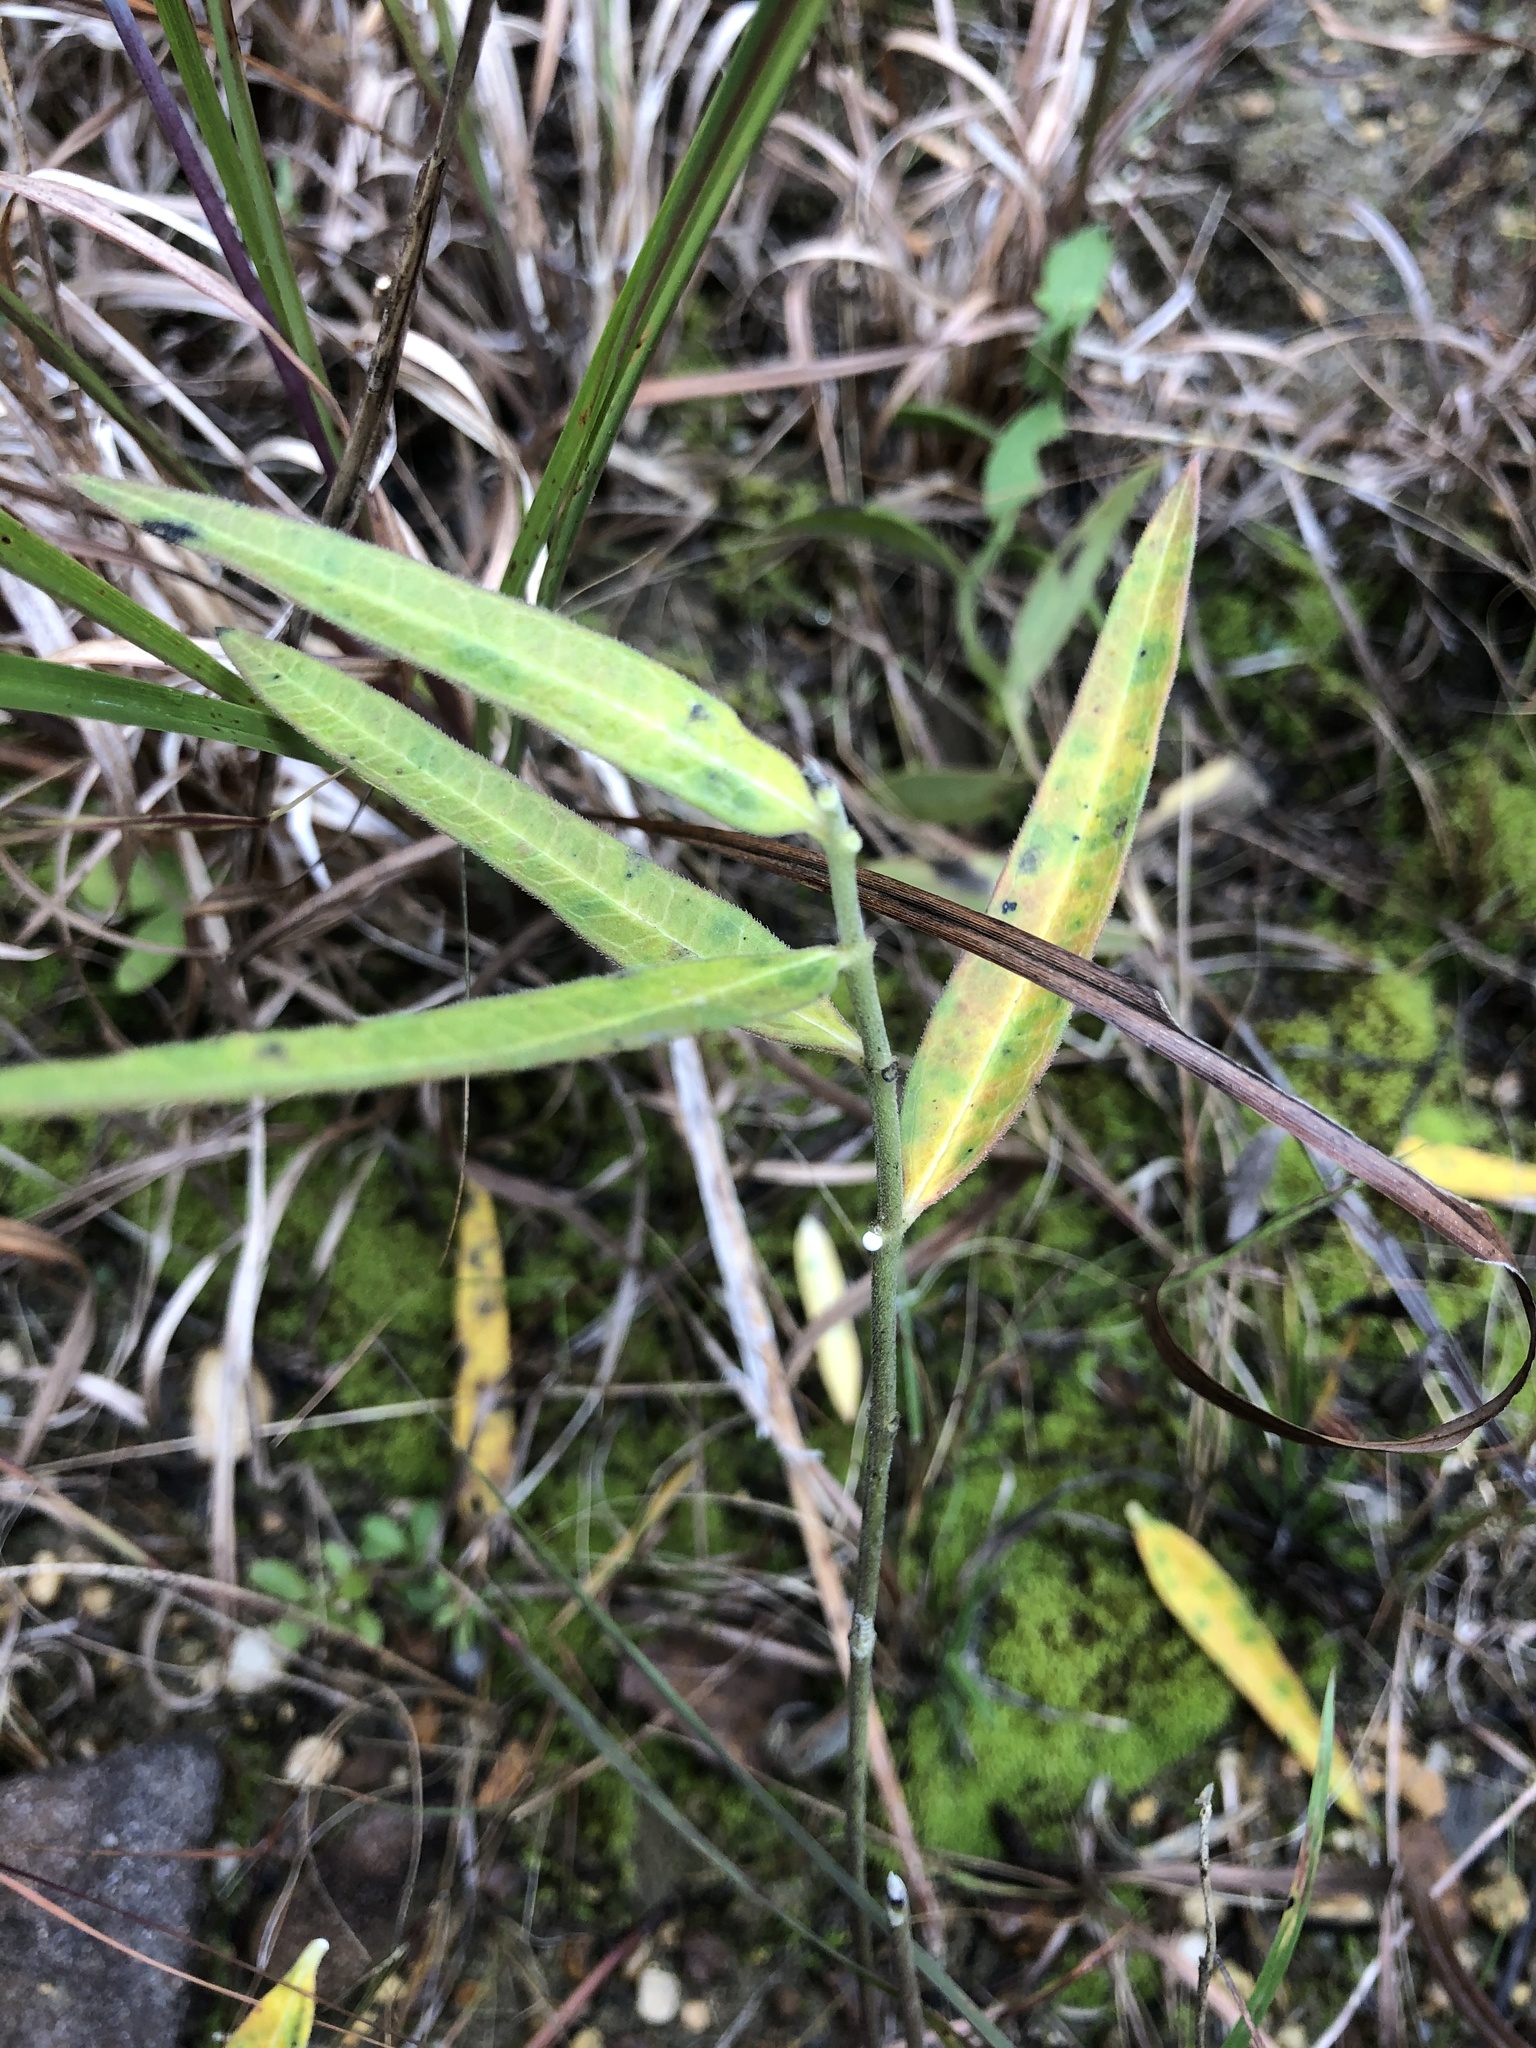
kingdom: Plantae
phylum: Tracheophyta
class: Magnoliopsida
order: Gentianales
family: Apocynaceae
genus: Asclepias
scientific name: Asclepias viridiflora
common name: Green comet milkweed
